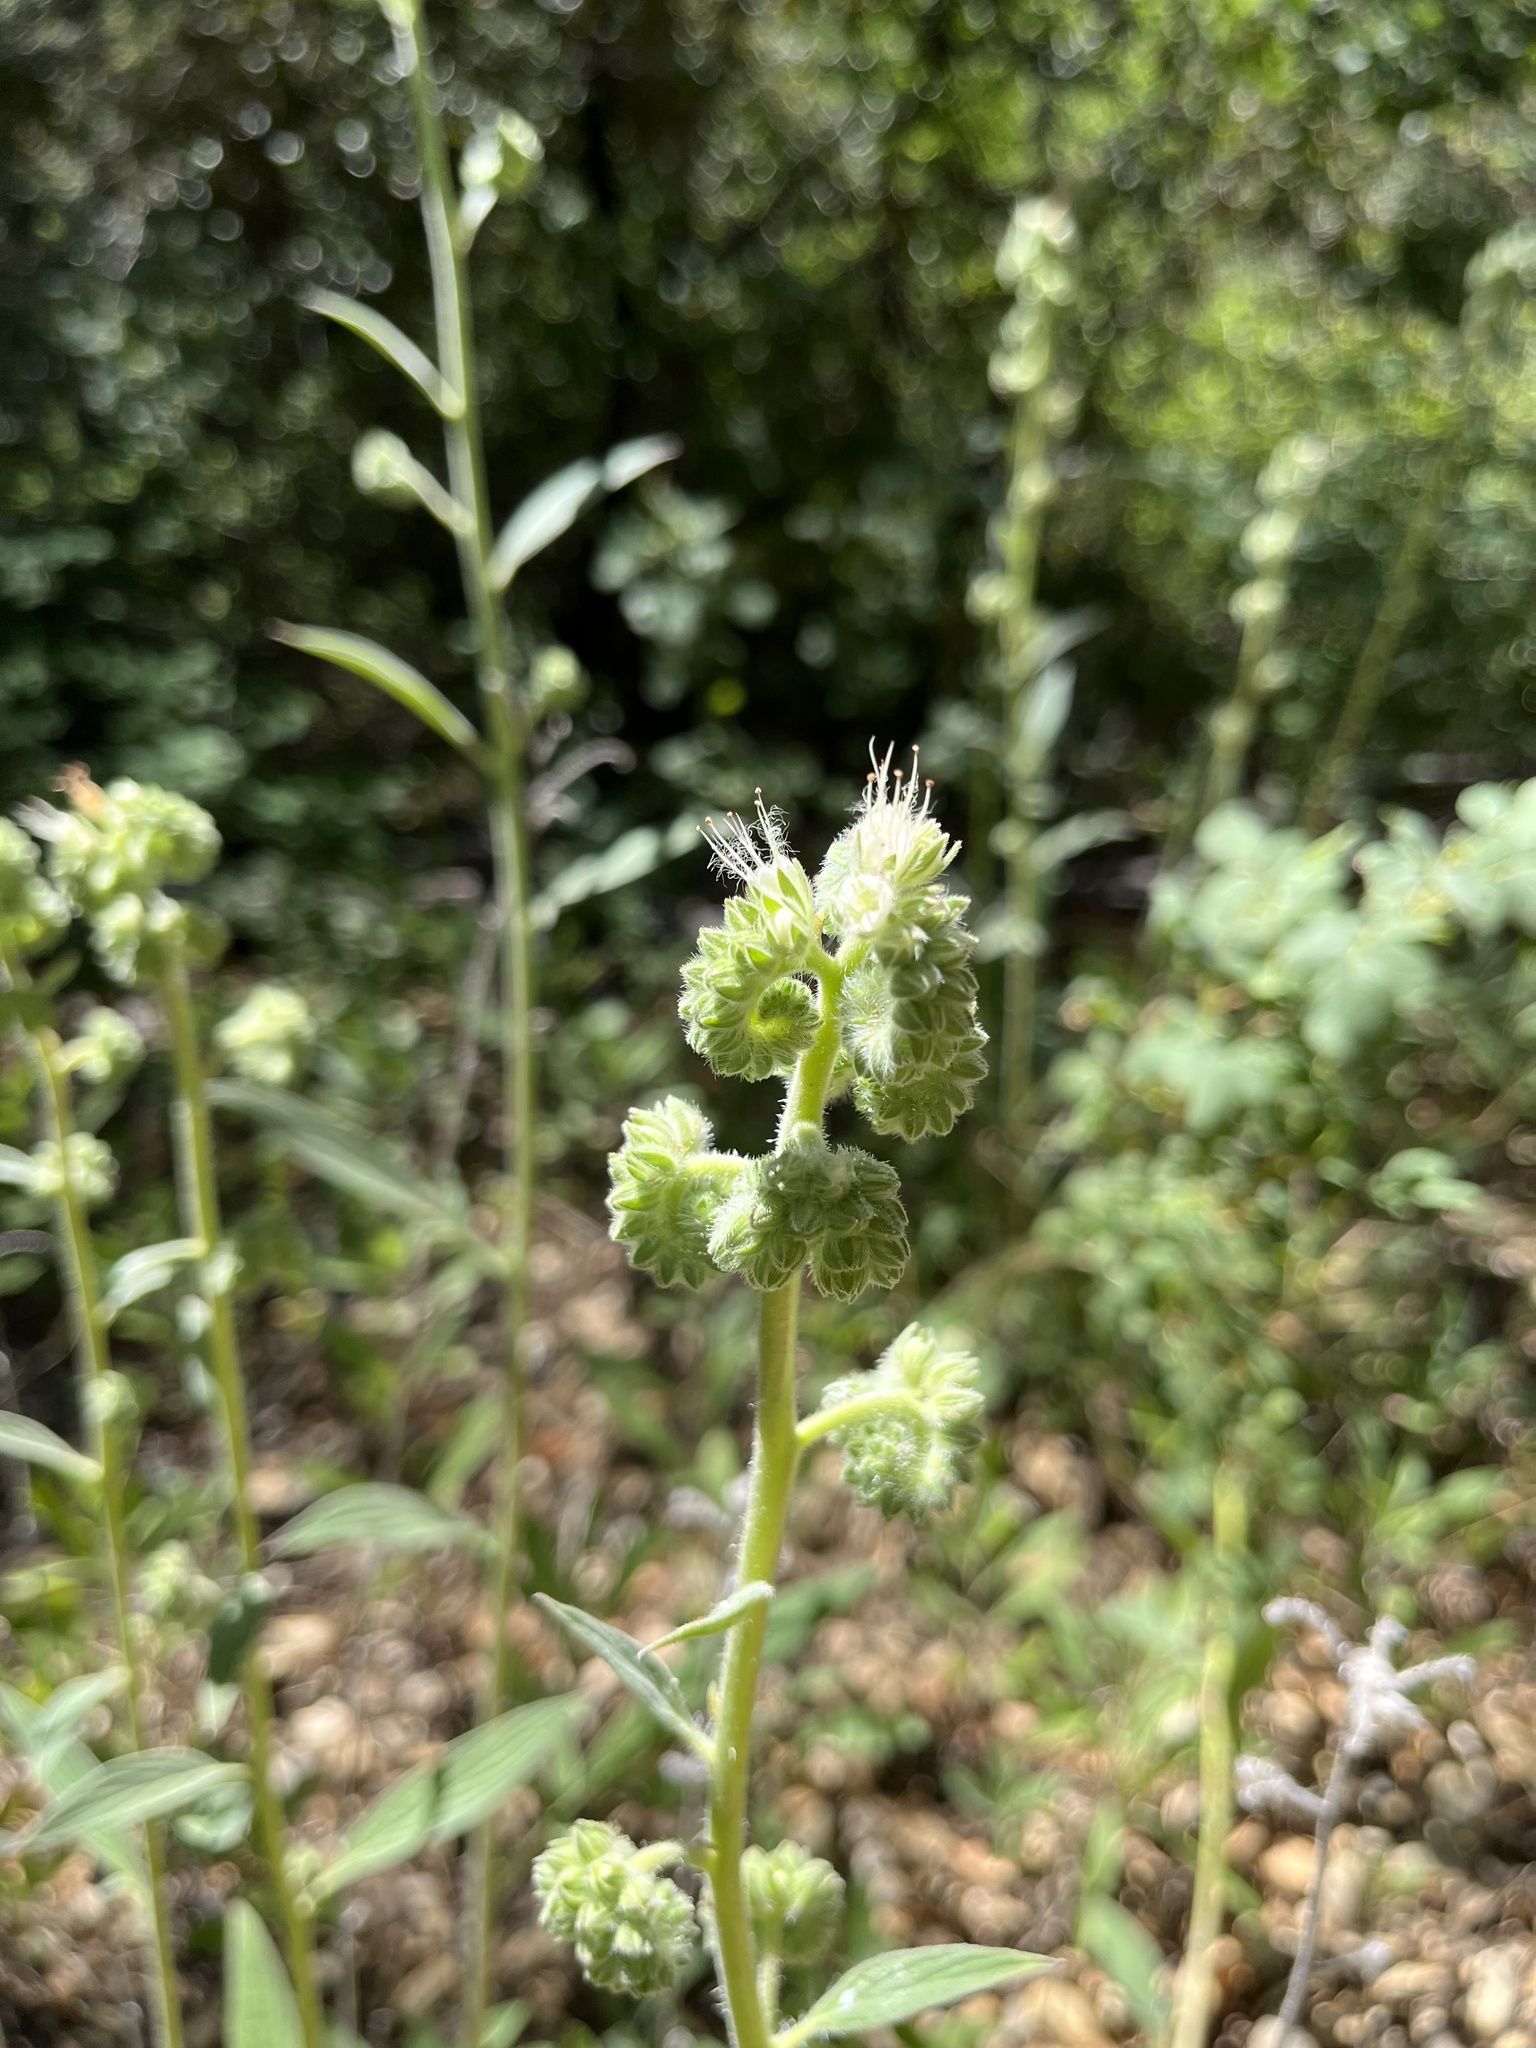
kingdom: Plantae
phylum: Tracheophyta
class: Magnoliopsida
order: Boraginales
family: Hydrophyllaceae
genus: Phacelia
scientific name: Phacelia imbricata
